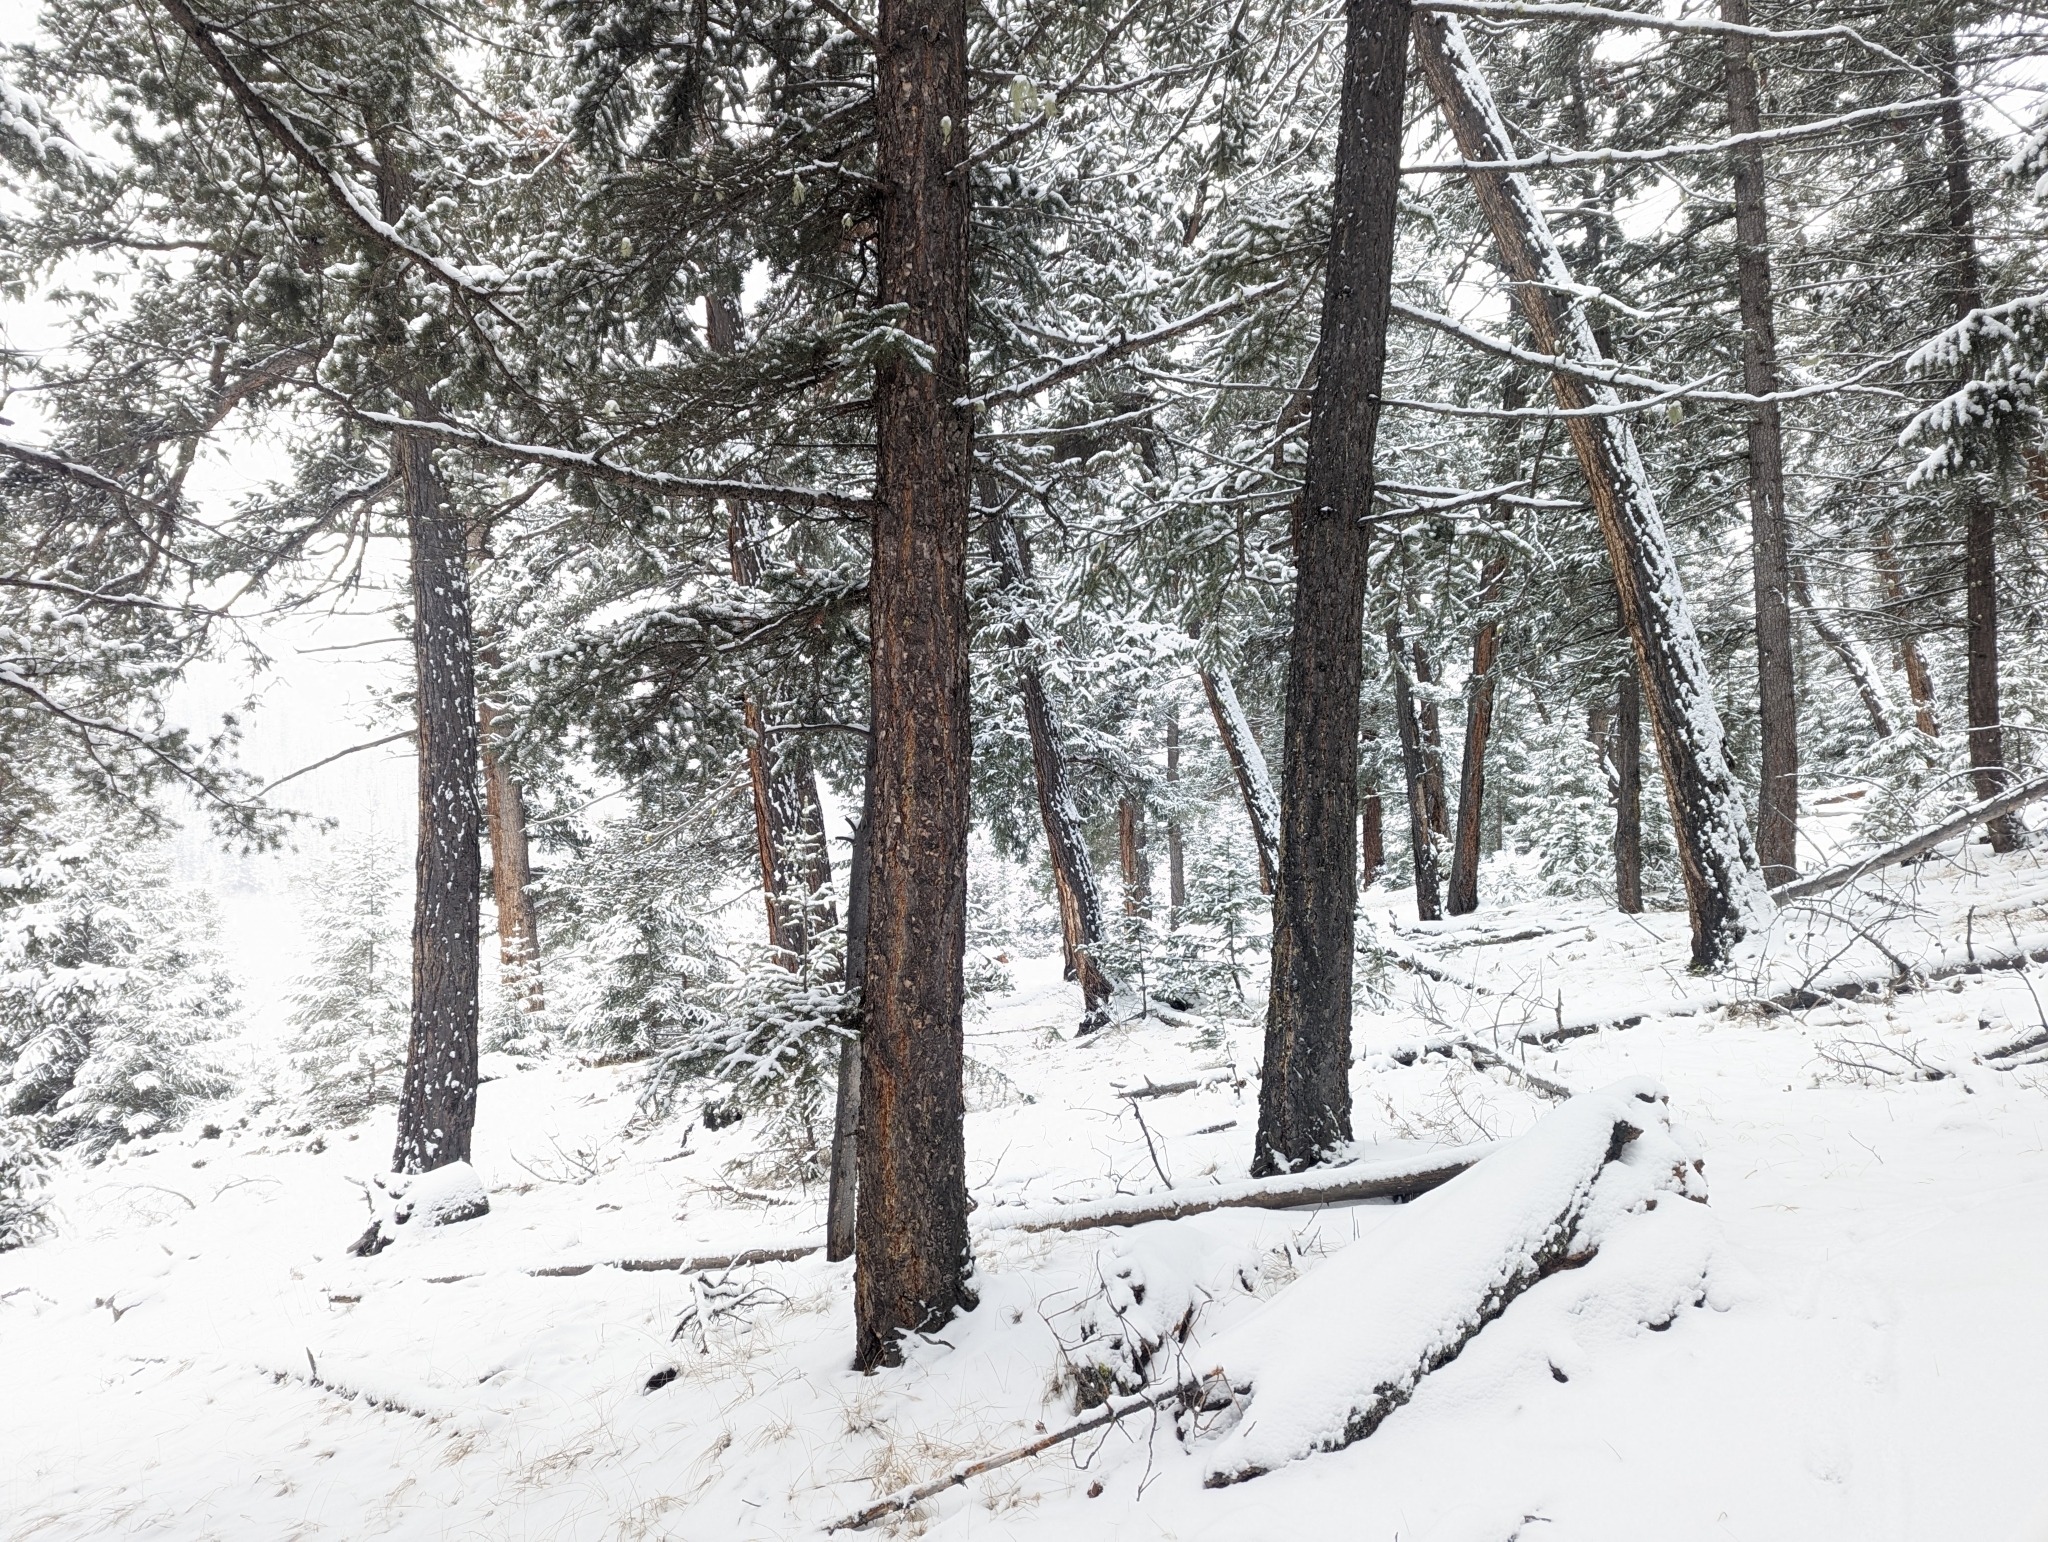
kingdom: Plantae
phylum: Tracheophyta
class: Pinopsida
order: Pinales
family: Pinaceae
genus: Pseudotsuga
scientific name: Pseudotsuga menziesii
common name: Douglas fir
